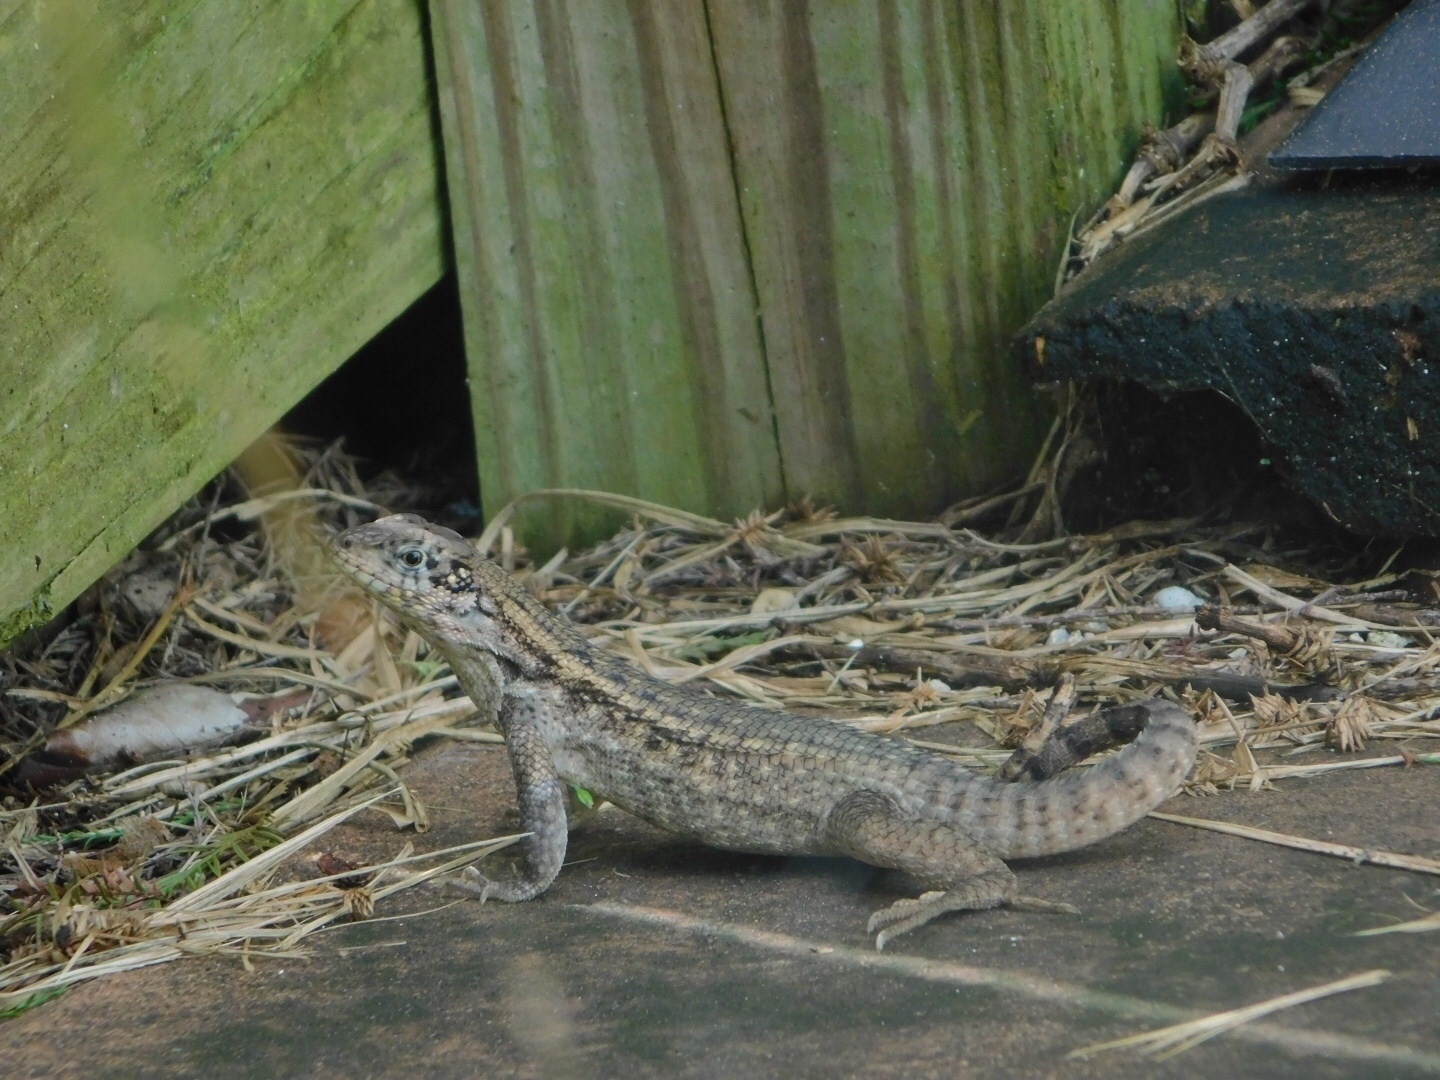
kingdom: Animalia
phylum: Chordata
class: Squamata
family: Leiocephalidae
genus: Leiocephalus
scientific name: Leiocephalus carinatus
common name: Northern curly-tailed lizard
